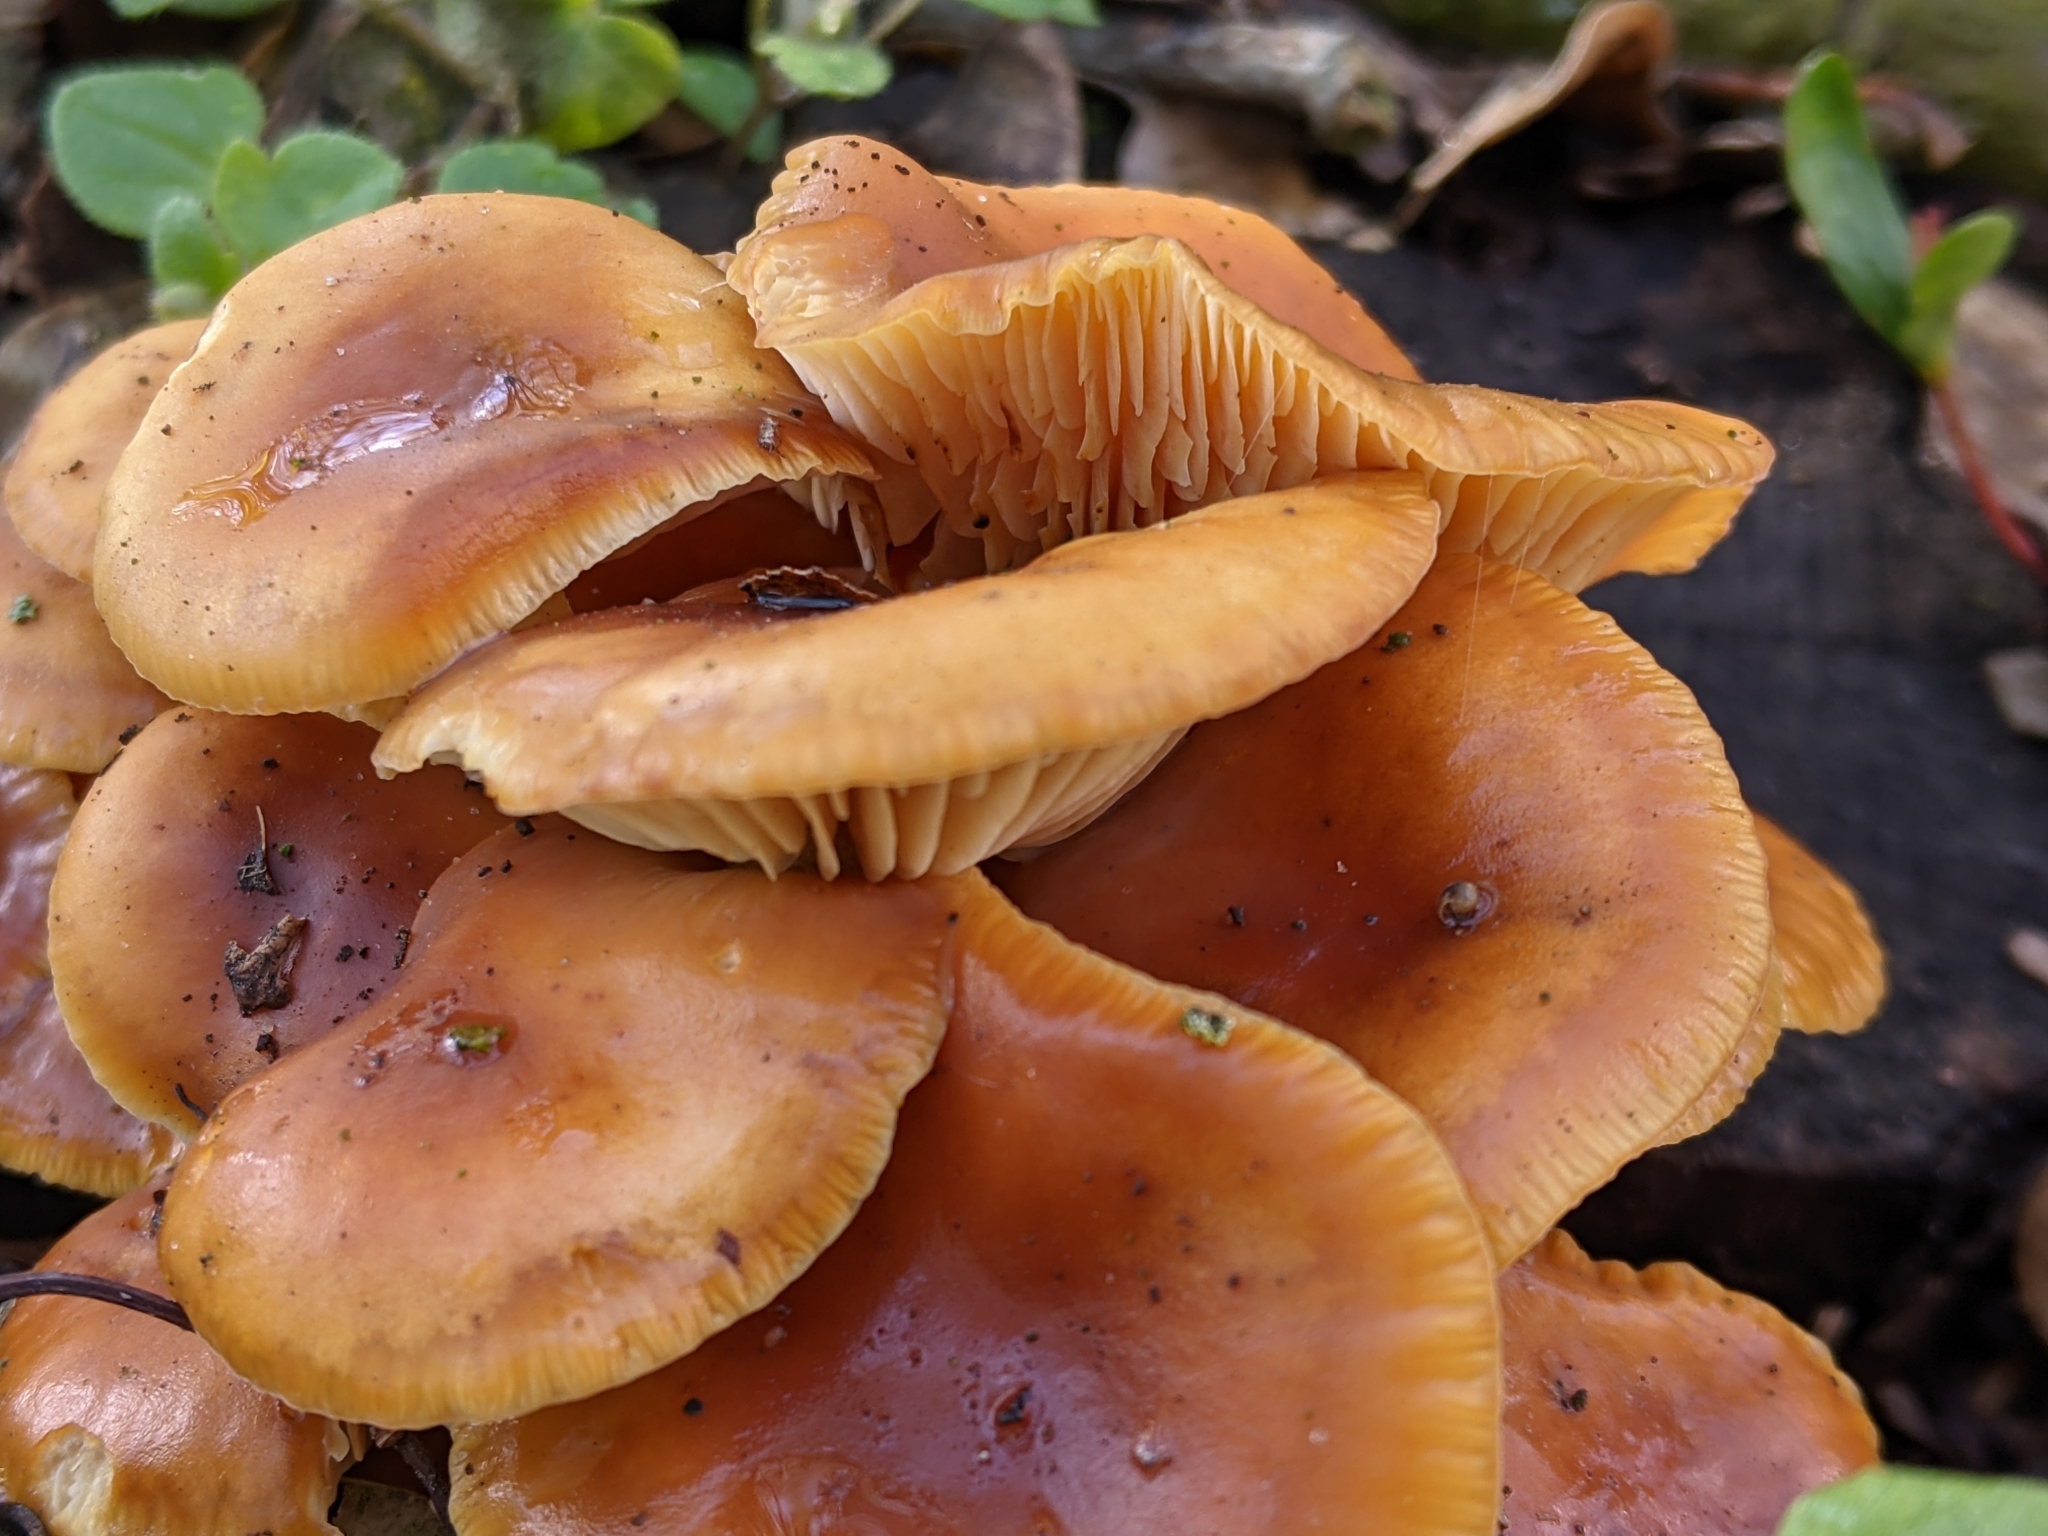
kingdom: Fungi
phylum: Basidiomycota
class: Agaricomycetes
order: Agaricales
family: Physalacriaceae
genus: Flammulina
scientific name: Flammulina
